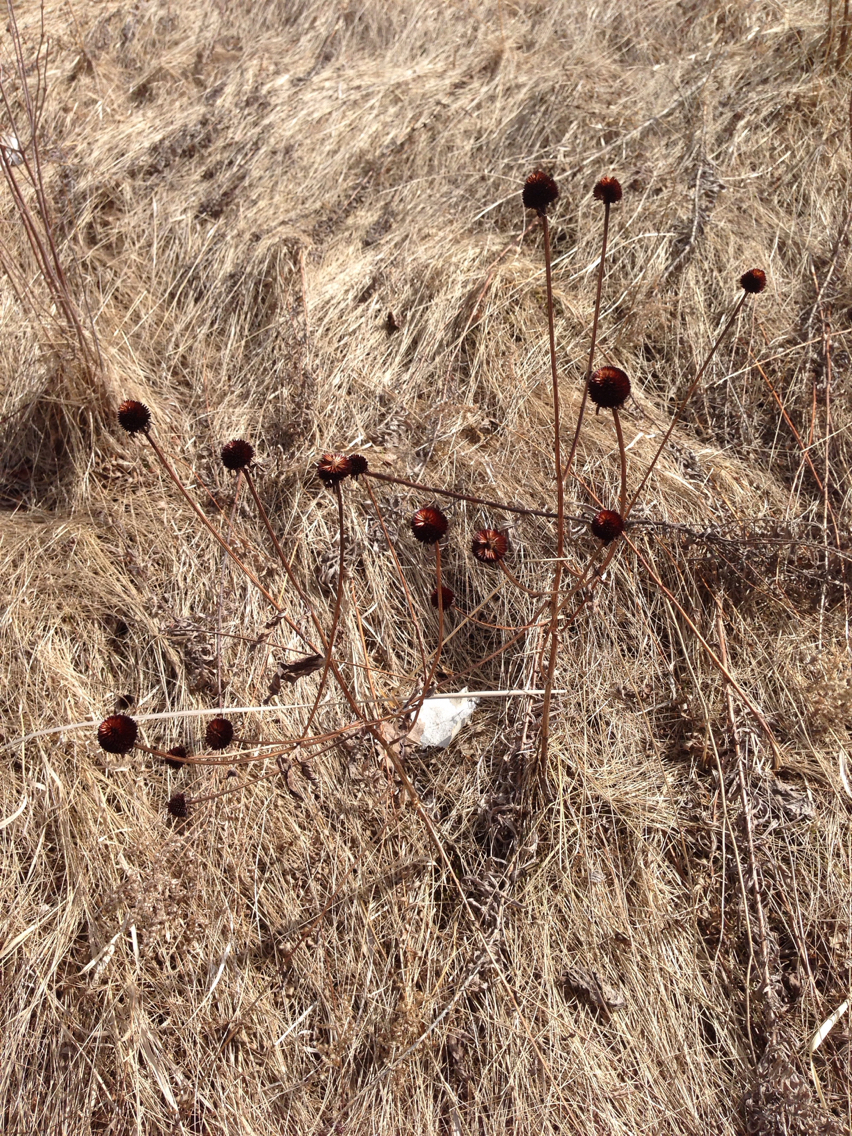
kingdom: Plantae
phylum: Tracheophyta
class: Magnoliopsida
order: Asterales
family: Asteraceae
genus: Echinacea
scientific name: Echinacea
